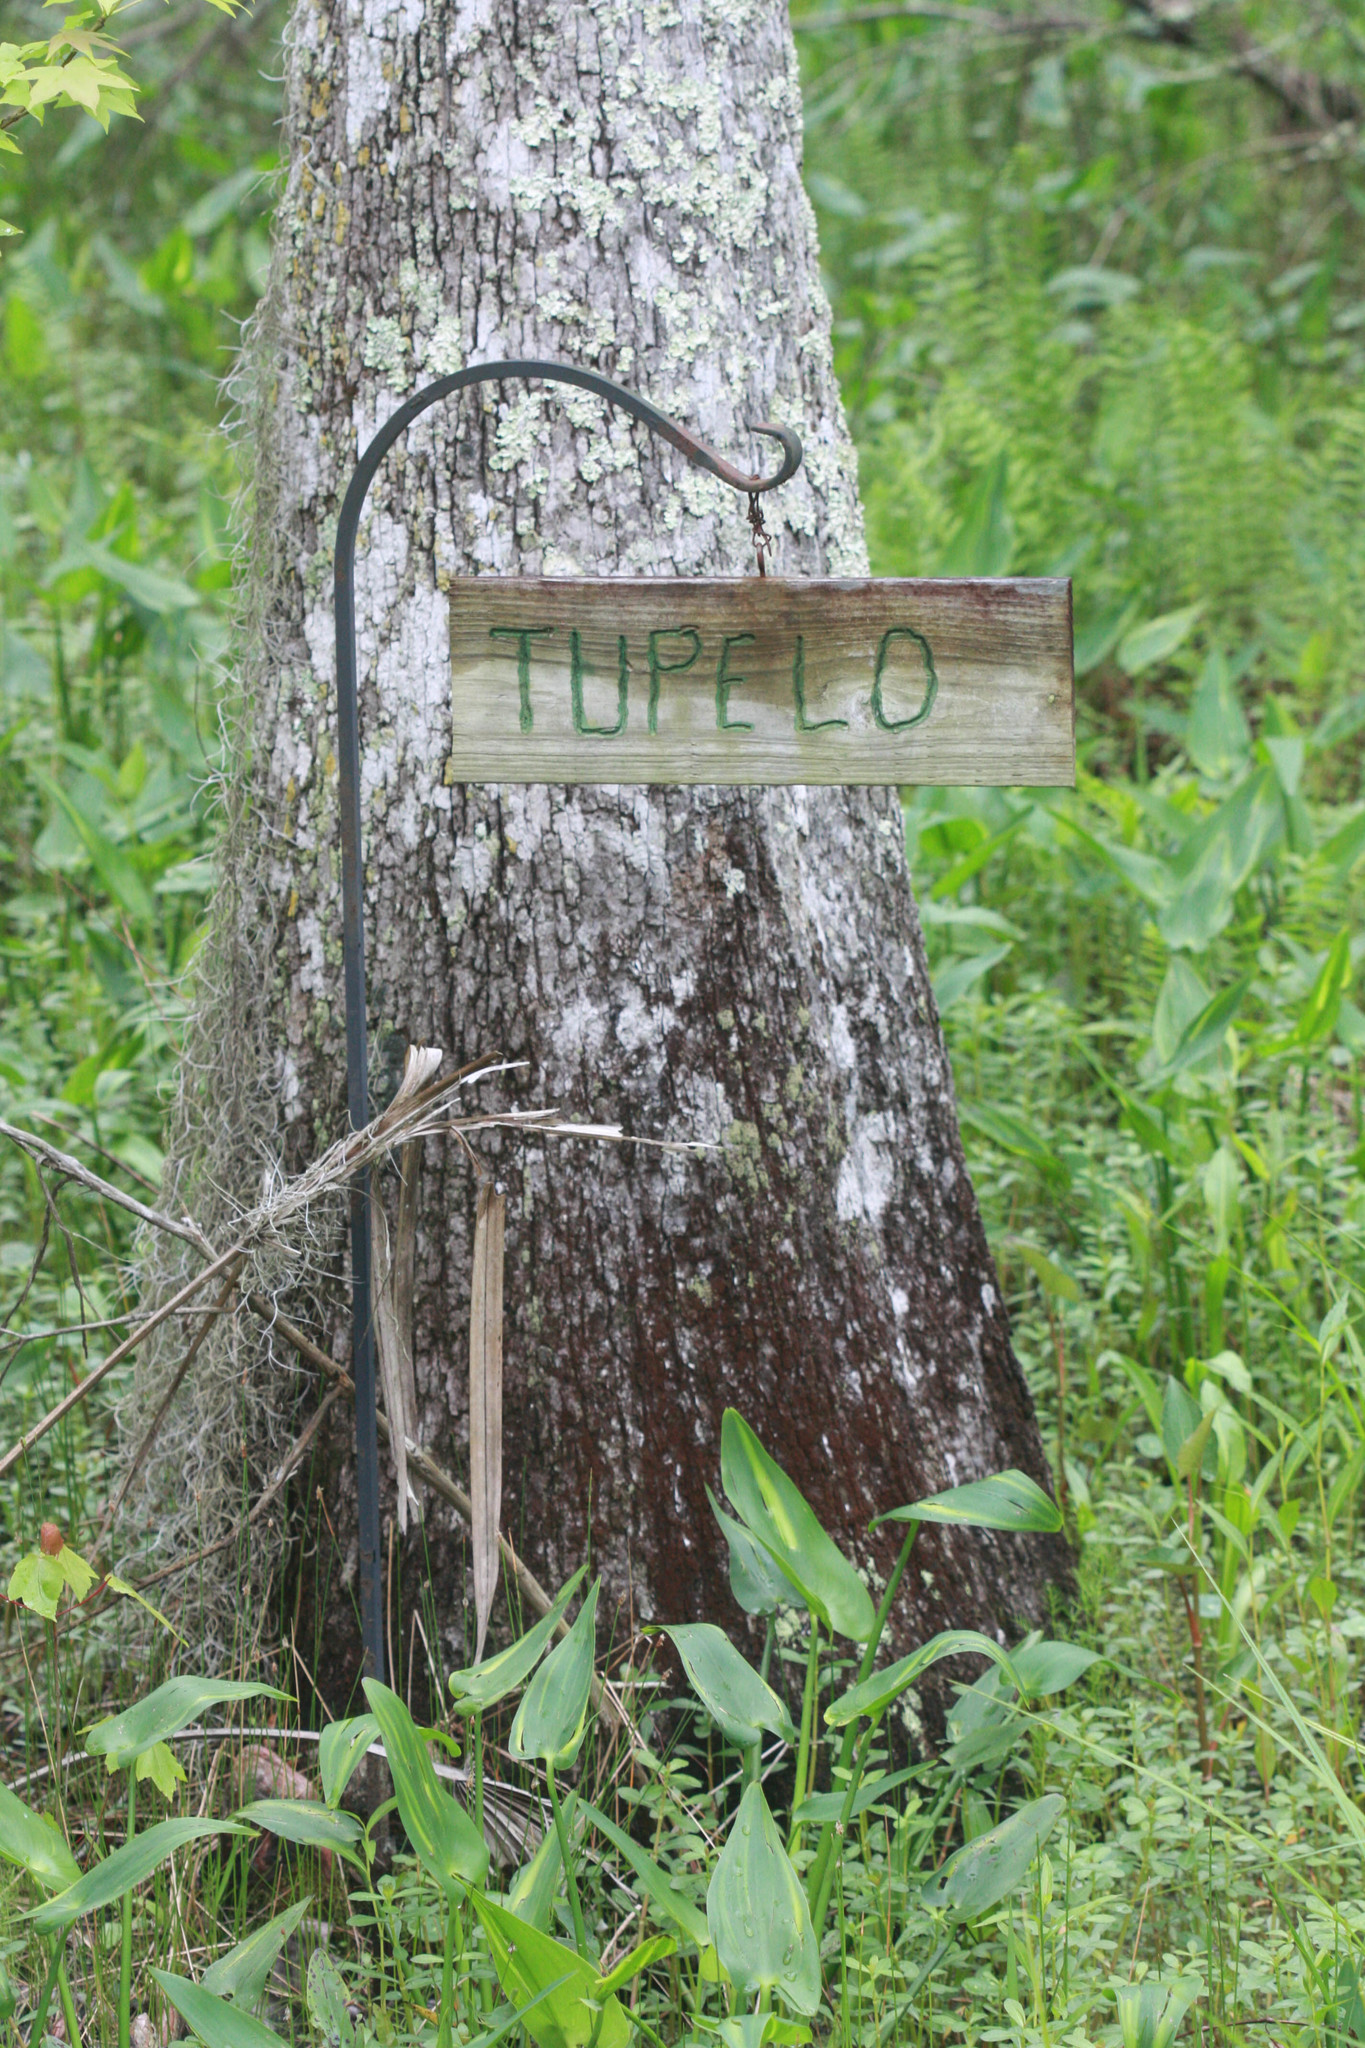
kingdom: Plantae
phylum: Tracheophyta
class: Magnoliopsida
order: Cornales
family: Nyssaceae
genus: Nyssa
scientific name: Nyssa aquatica
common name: Swamp tupelo
